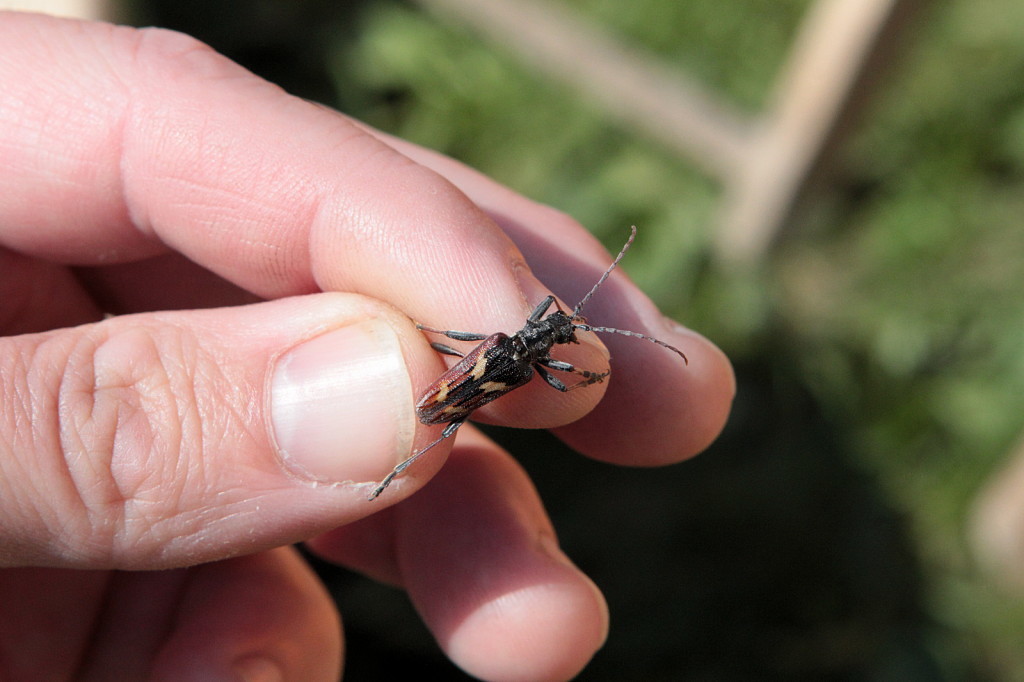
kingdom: Animalia
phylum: Arthropoda
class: Insecta
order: Coleoptera
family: Cerambycidae
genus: Rhagium
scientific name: Rhagium bifasciatum
